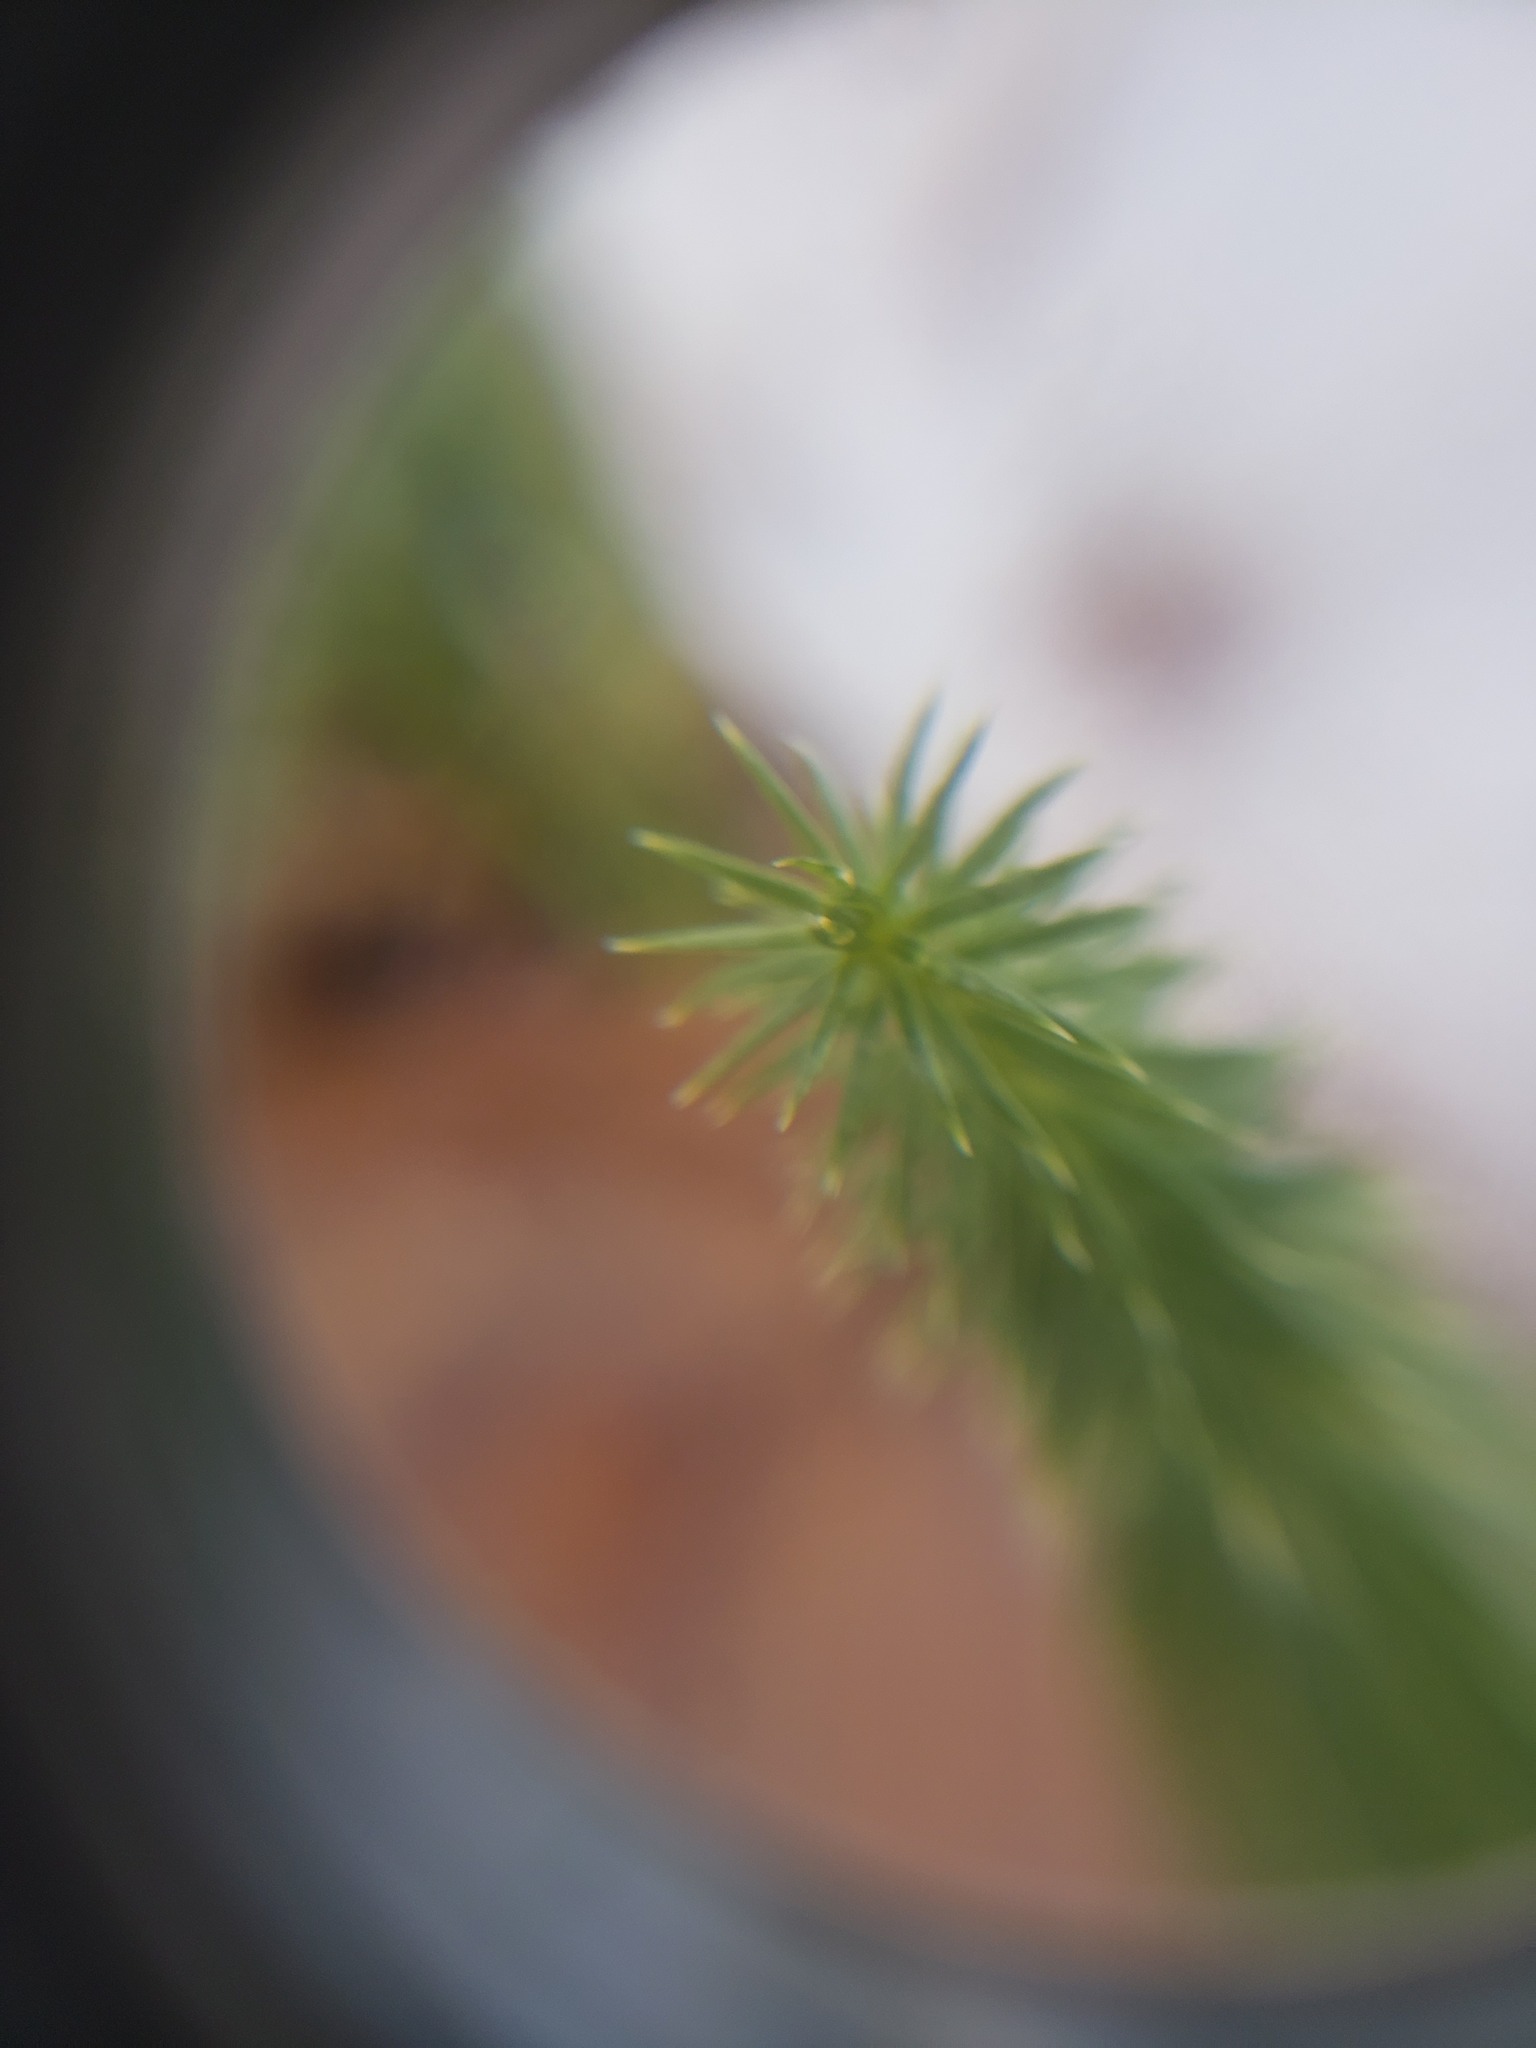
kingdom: Plantae
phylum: Tracheophyta
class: Lycopodiopsida
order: Lycopodiales
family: Lycopodiaceae
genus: Spinulum
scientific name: Spinulum annotinum
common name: Interrupted club-moss
